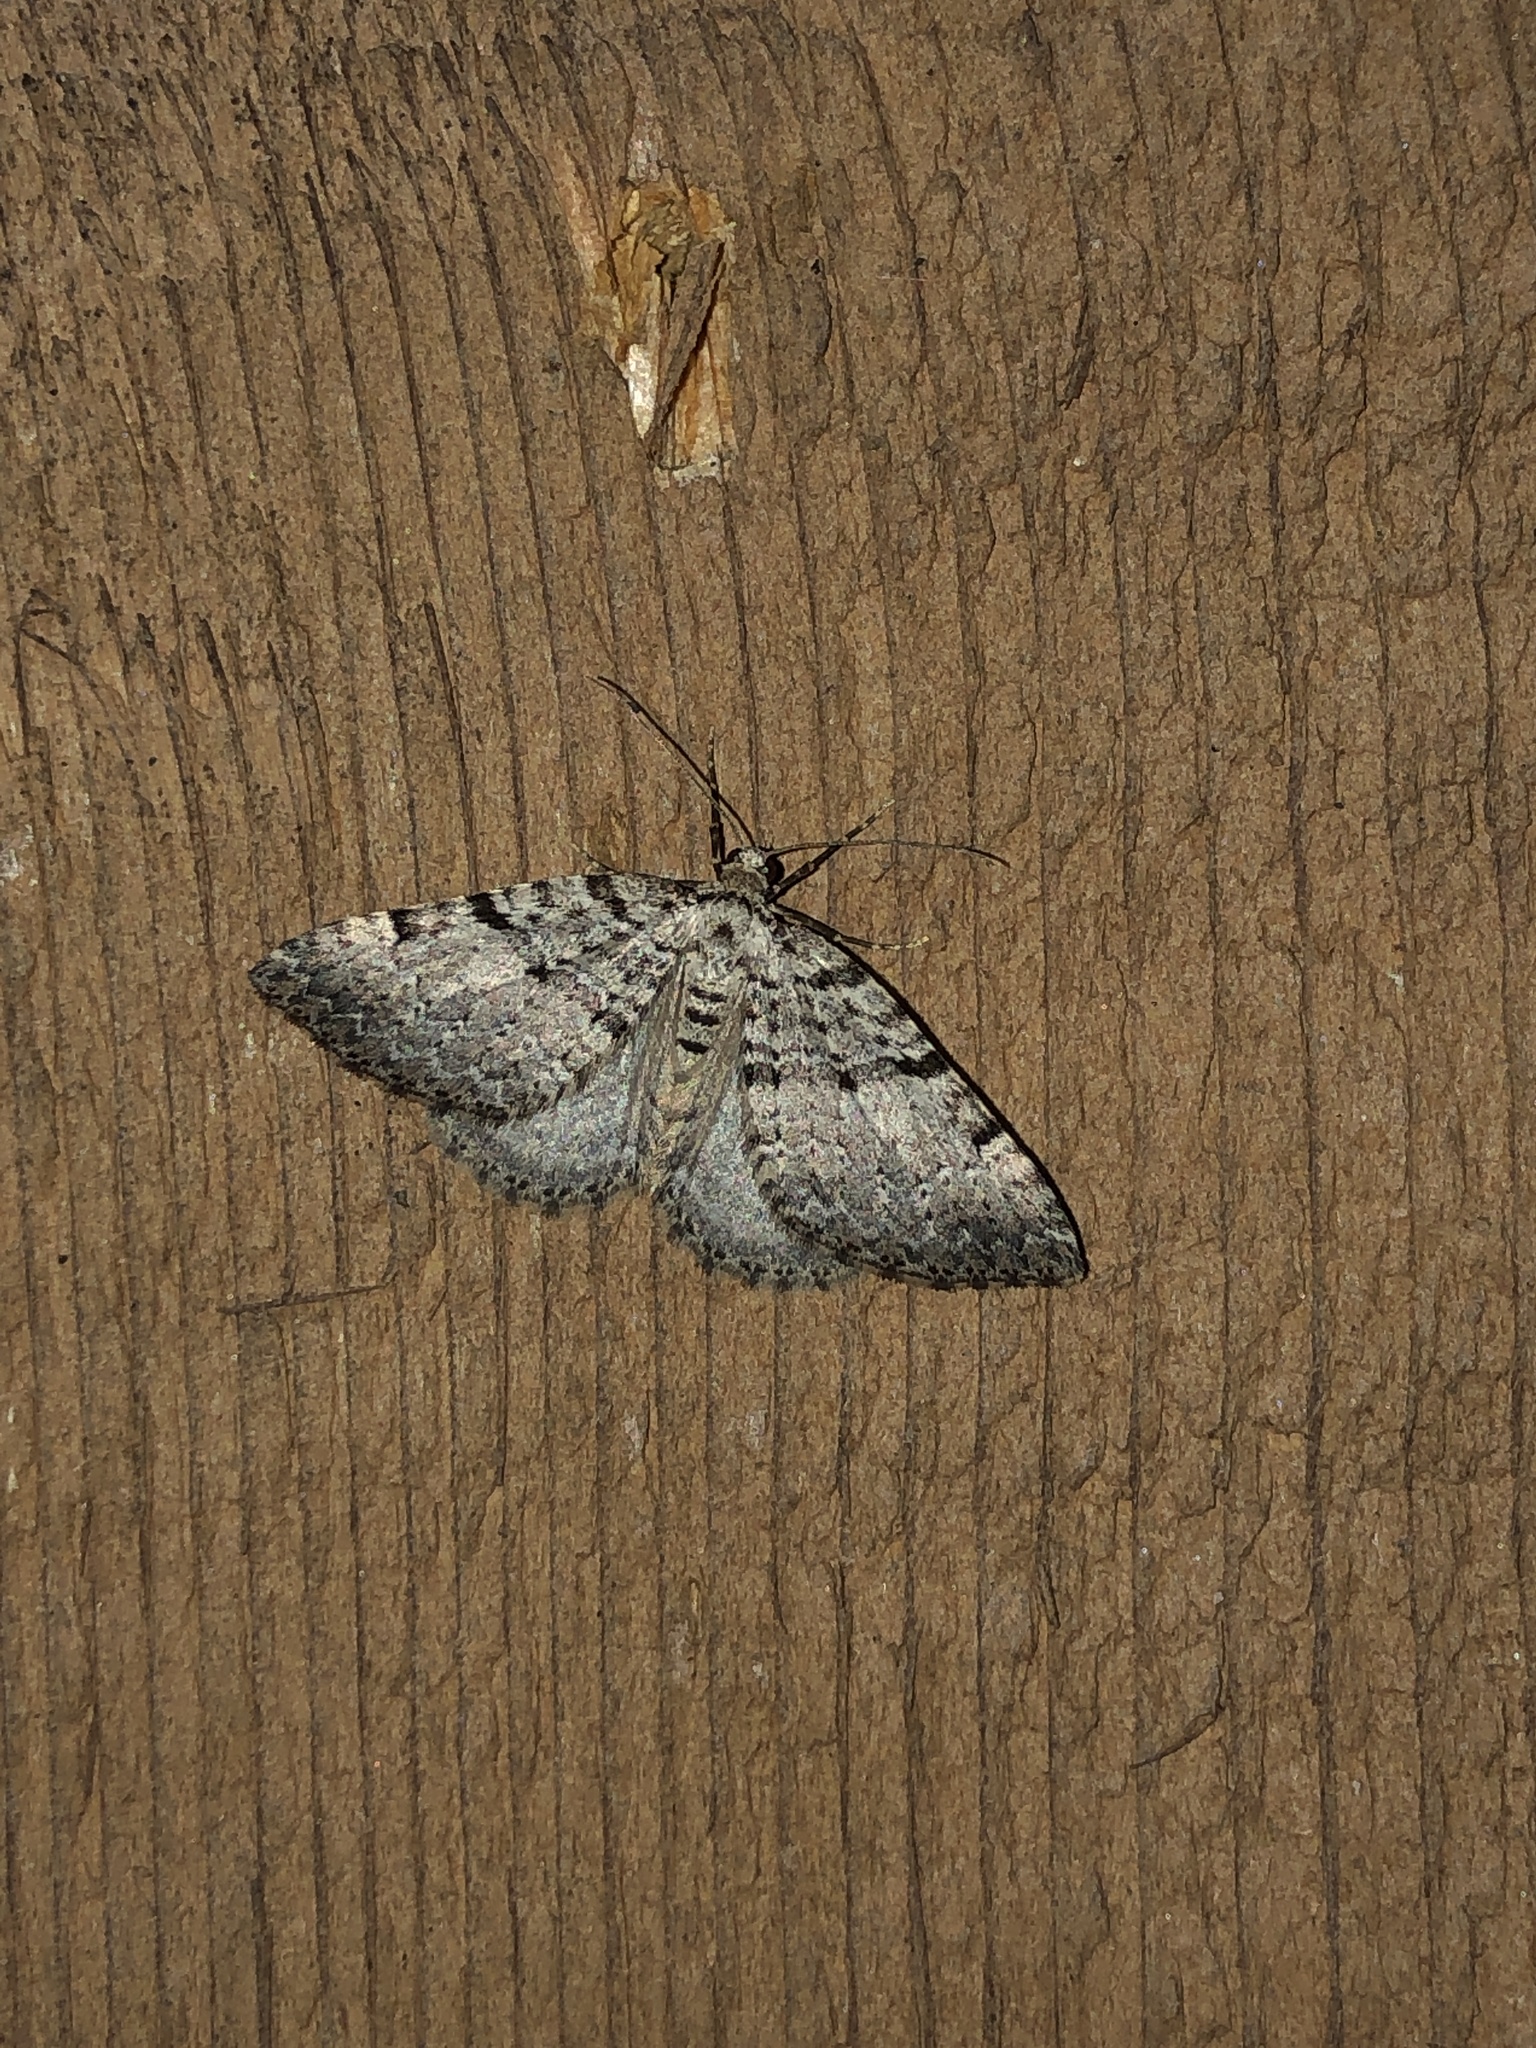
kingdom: Animalia
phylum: Arthropoda
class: Insecta
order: Lepidoptera
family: Geometridae
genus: Perizoma
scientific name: Perizoma curvilinea
